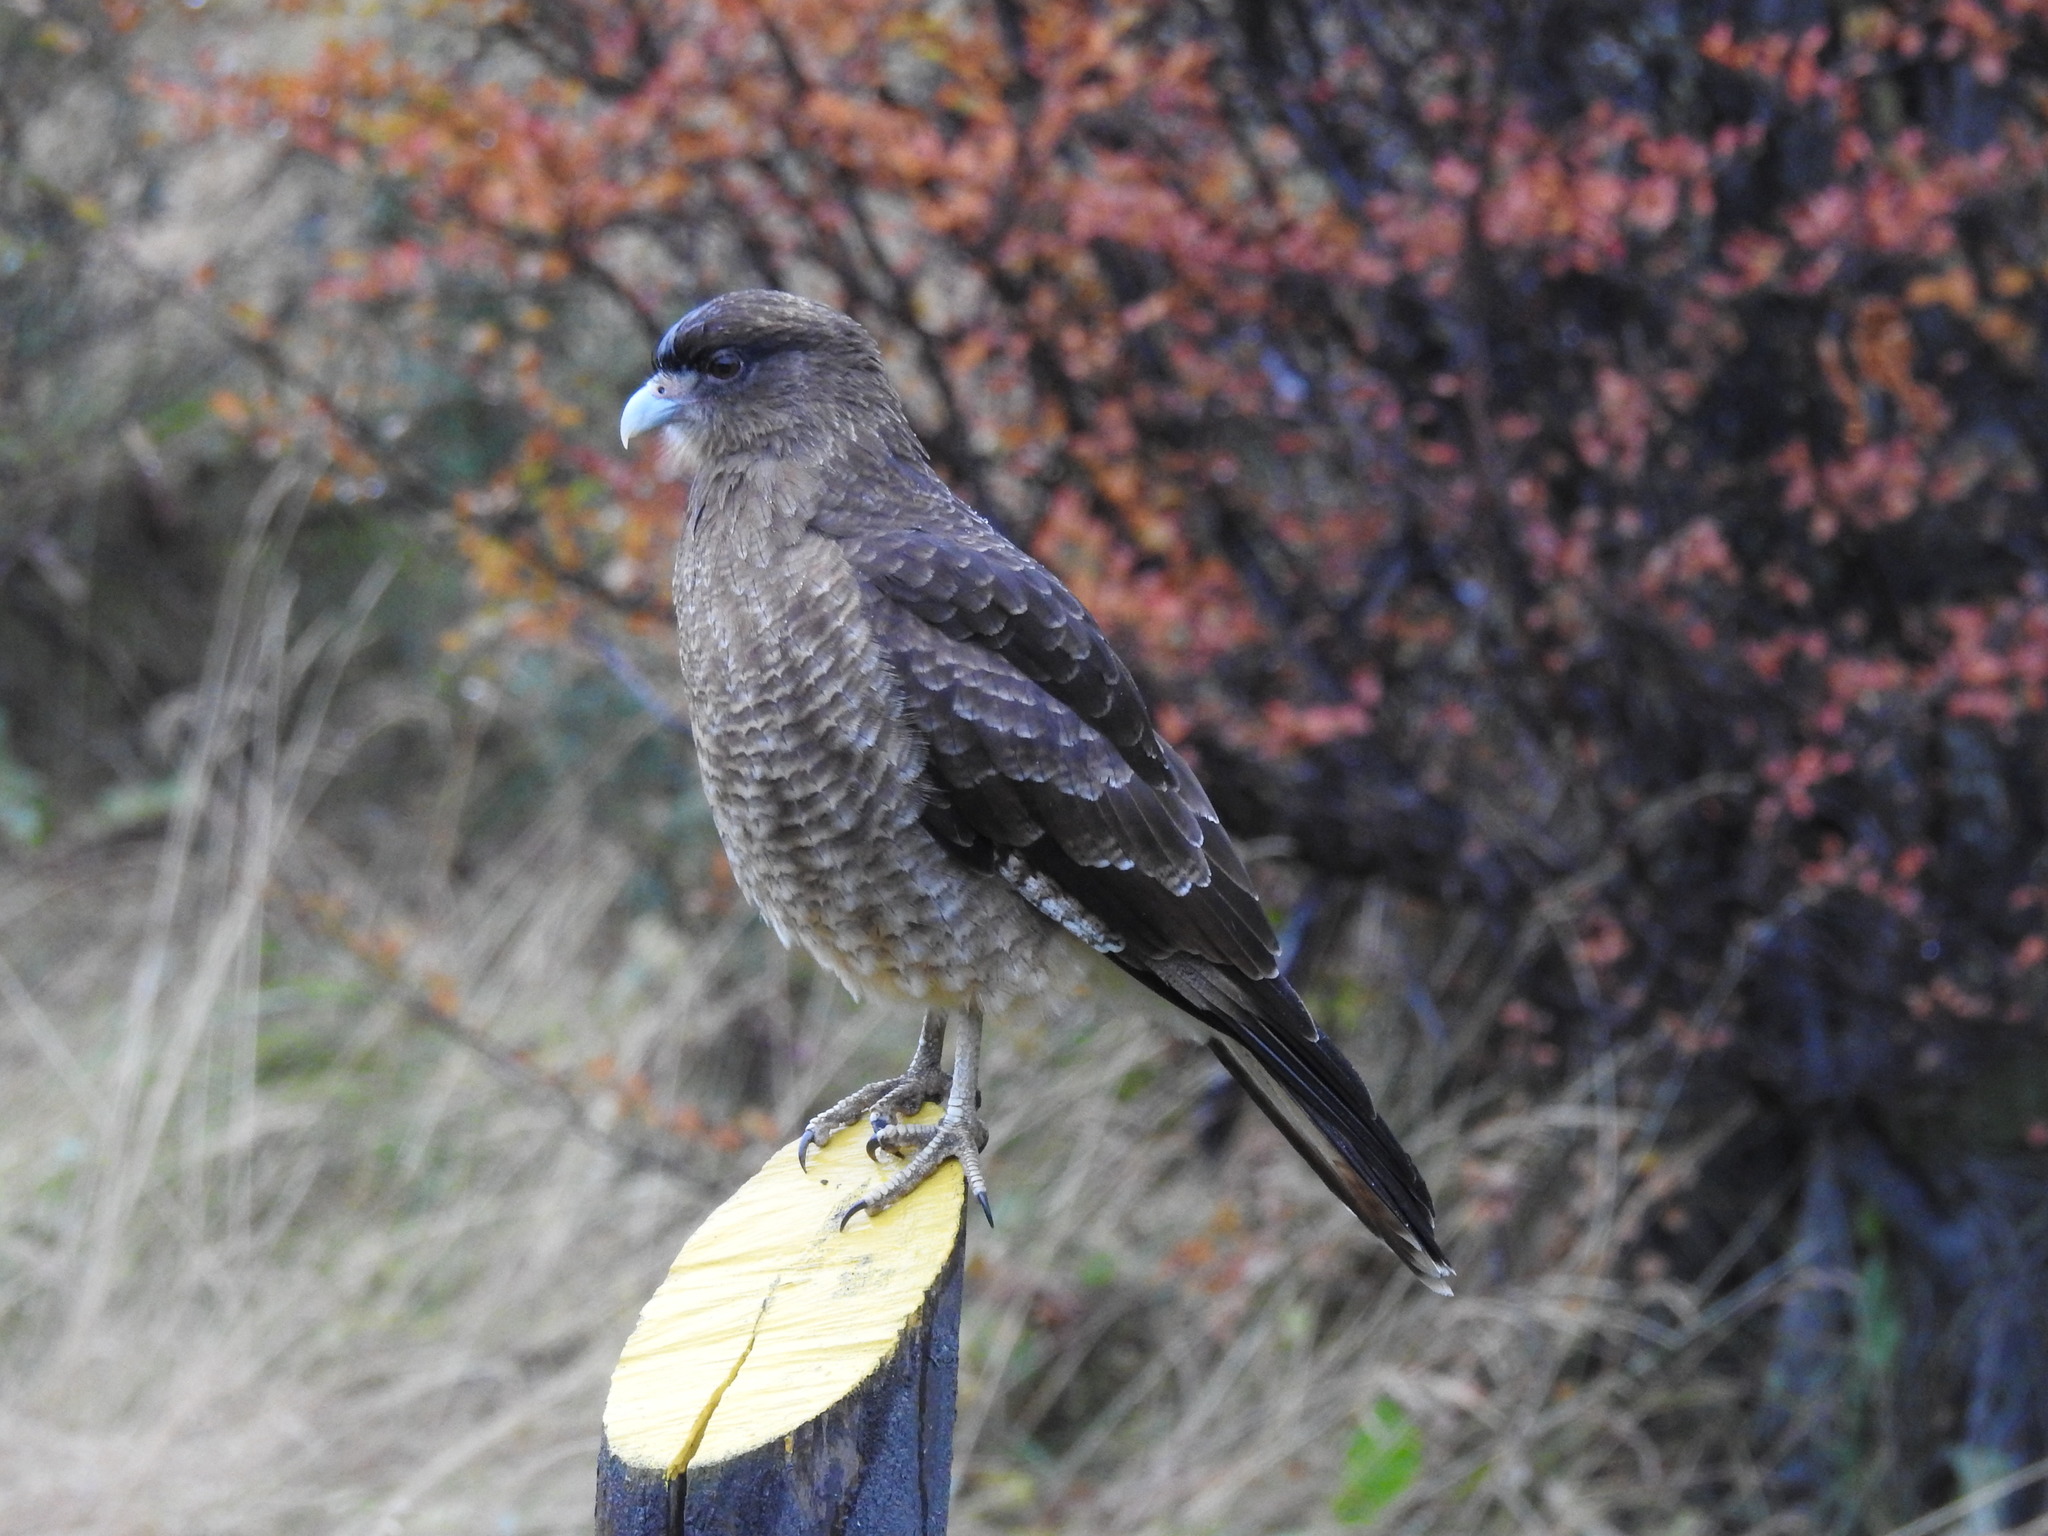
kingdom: Animalia
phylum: Chordata
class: Aves
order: Falconiformes
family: Falconidae
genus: Daptrius
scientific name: Daptrius
